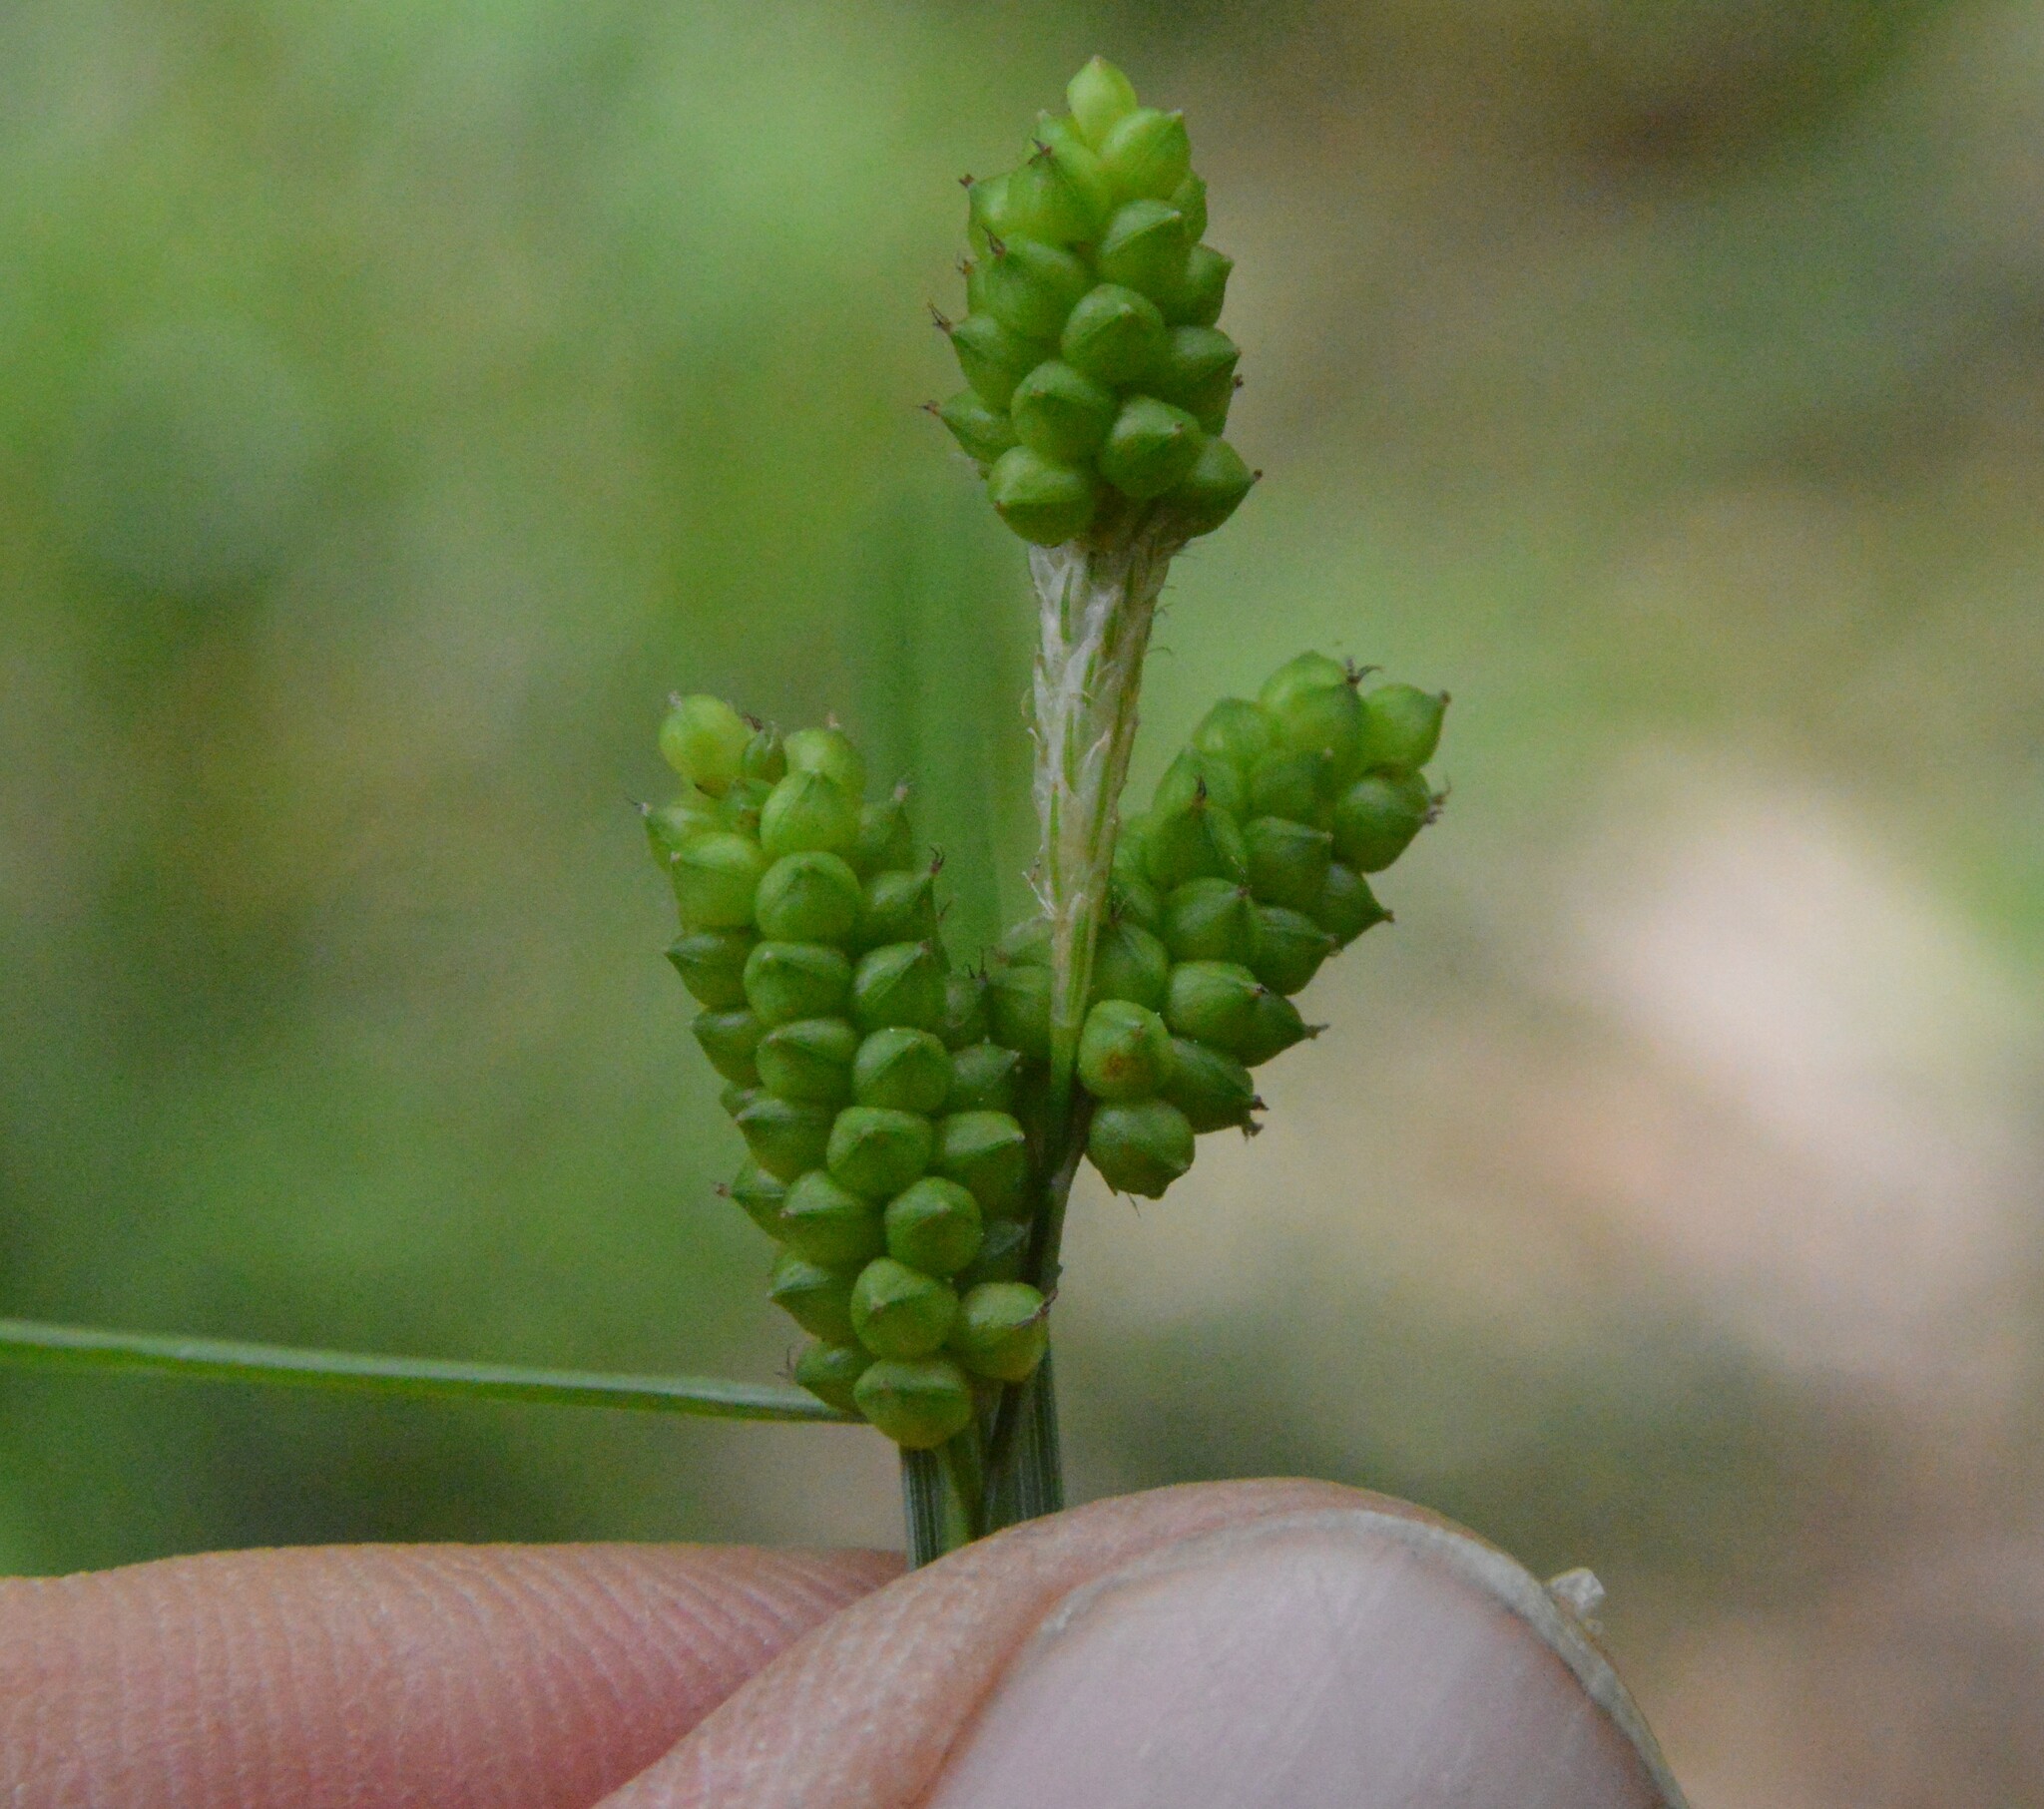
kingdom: Plantae
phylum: Tracheophyta
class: Liliopsida
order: Poales
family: Cyperaceae
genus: Carex
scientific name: Carex caroliniana
